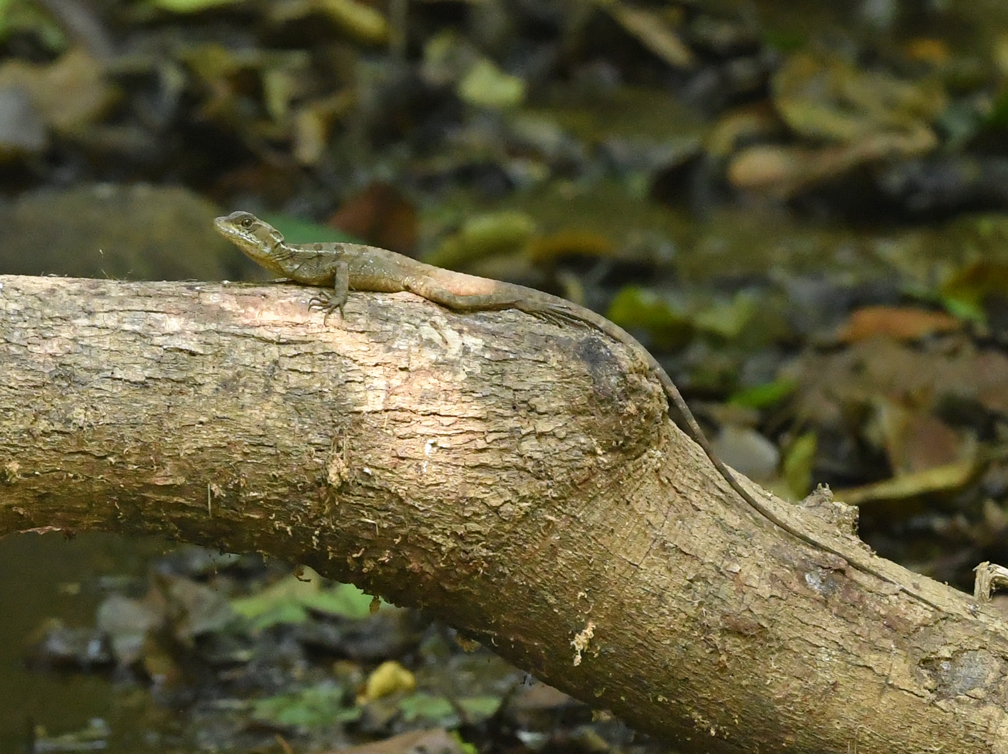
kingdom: Animalia
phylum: Chordata
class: Squamata
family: Corytophanidae
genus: Basiliscus
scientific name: Basiliscus basiliscus
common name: Common basilisk
